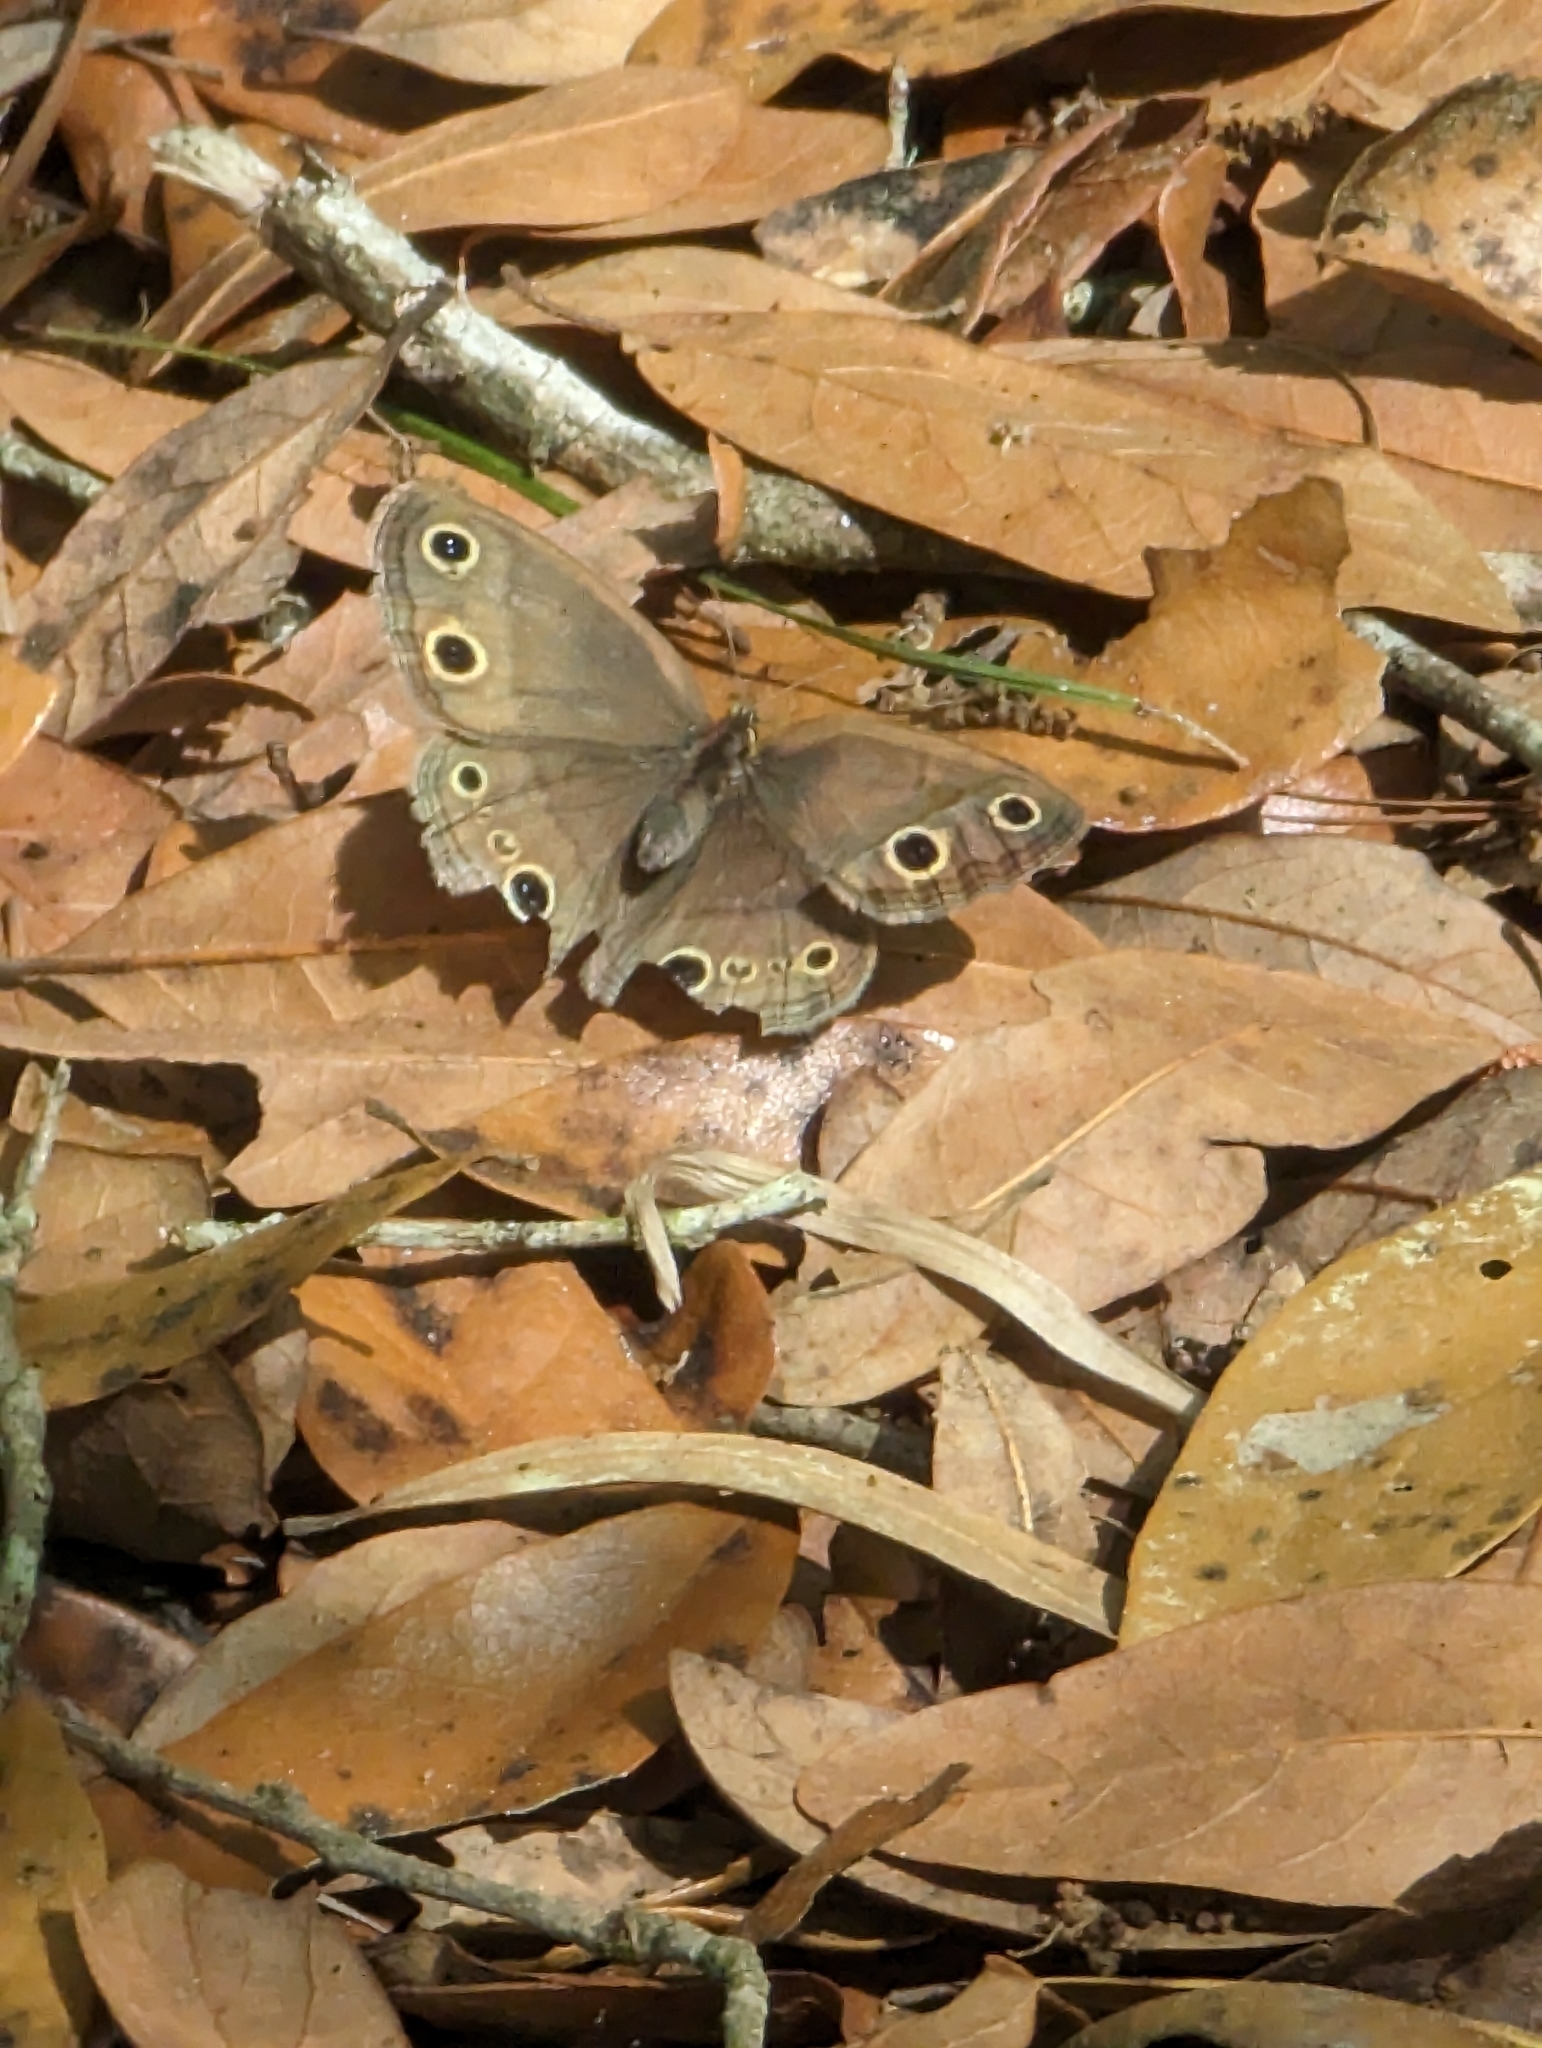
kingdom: Animalia
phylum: Arthropoda
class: Insecta
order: Lepidoptera
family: Nymphalidae
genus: Euptychia
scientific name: Euptychia cymela
